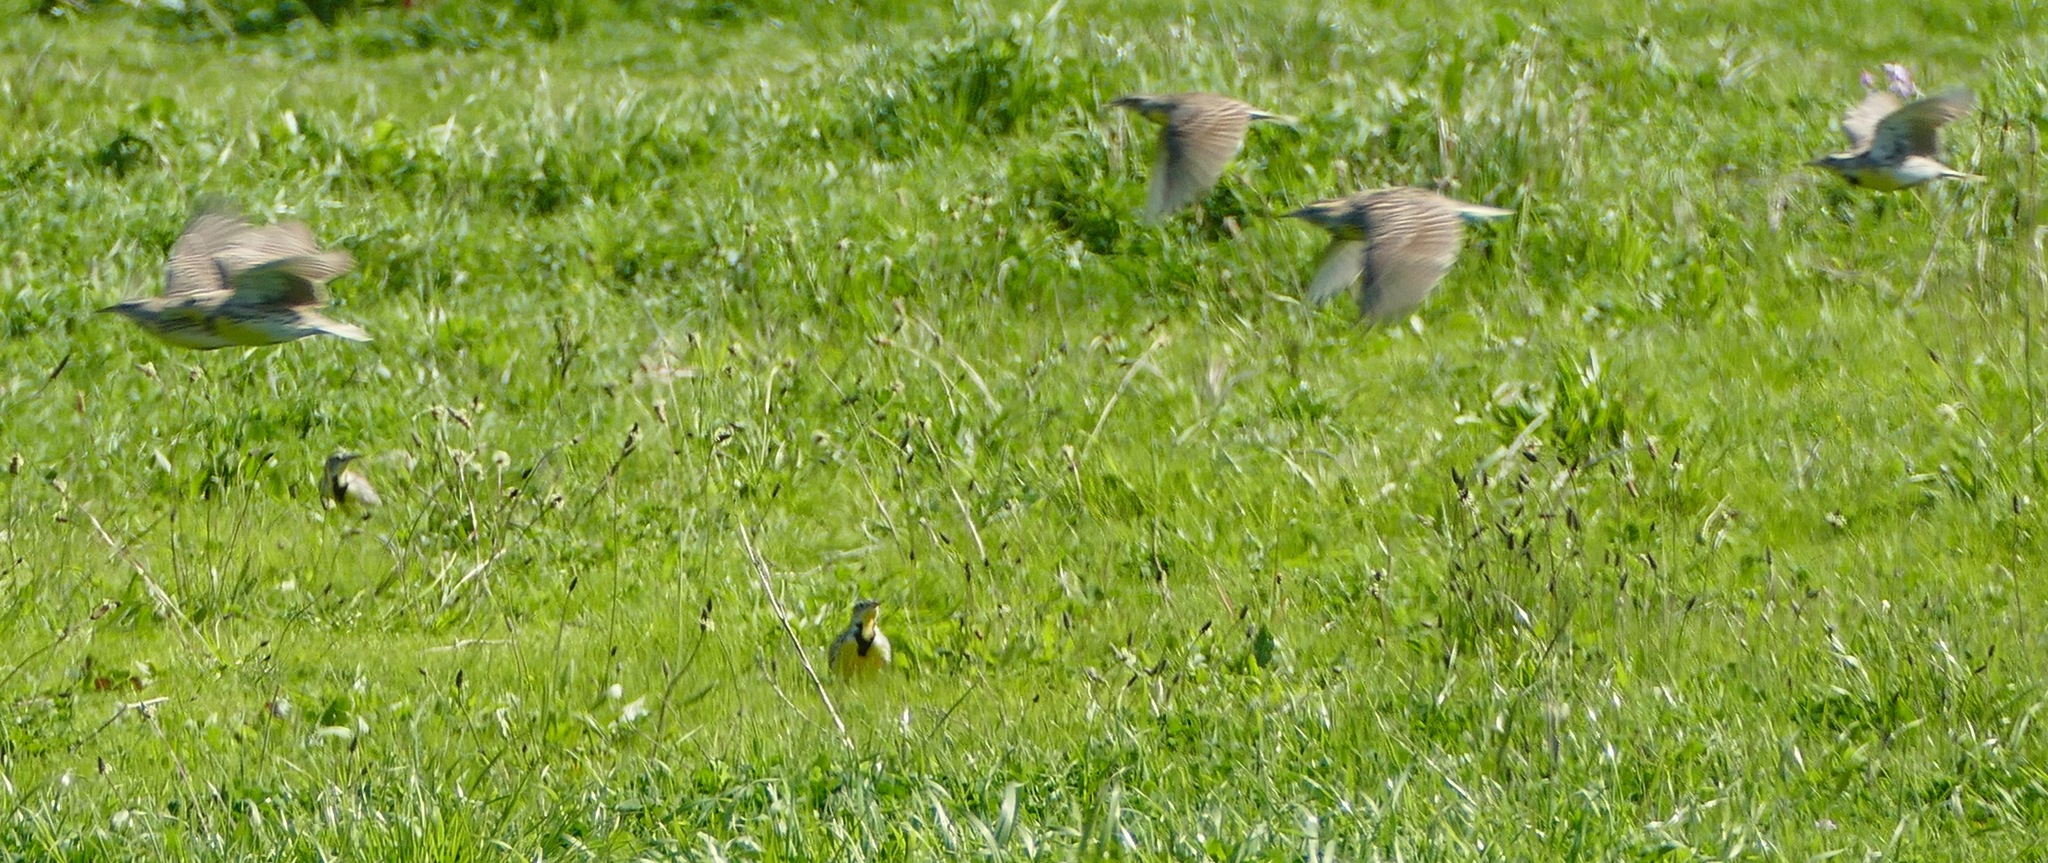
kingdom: Animalia
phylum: Chordata
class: Aves
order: Passeriformes
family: Icteridae
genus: Sturnella
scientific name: Sturnella neglecta
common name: Western meadowlark
